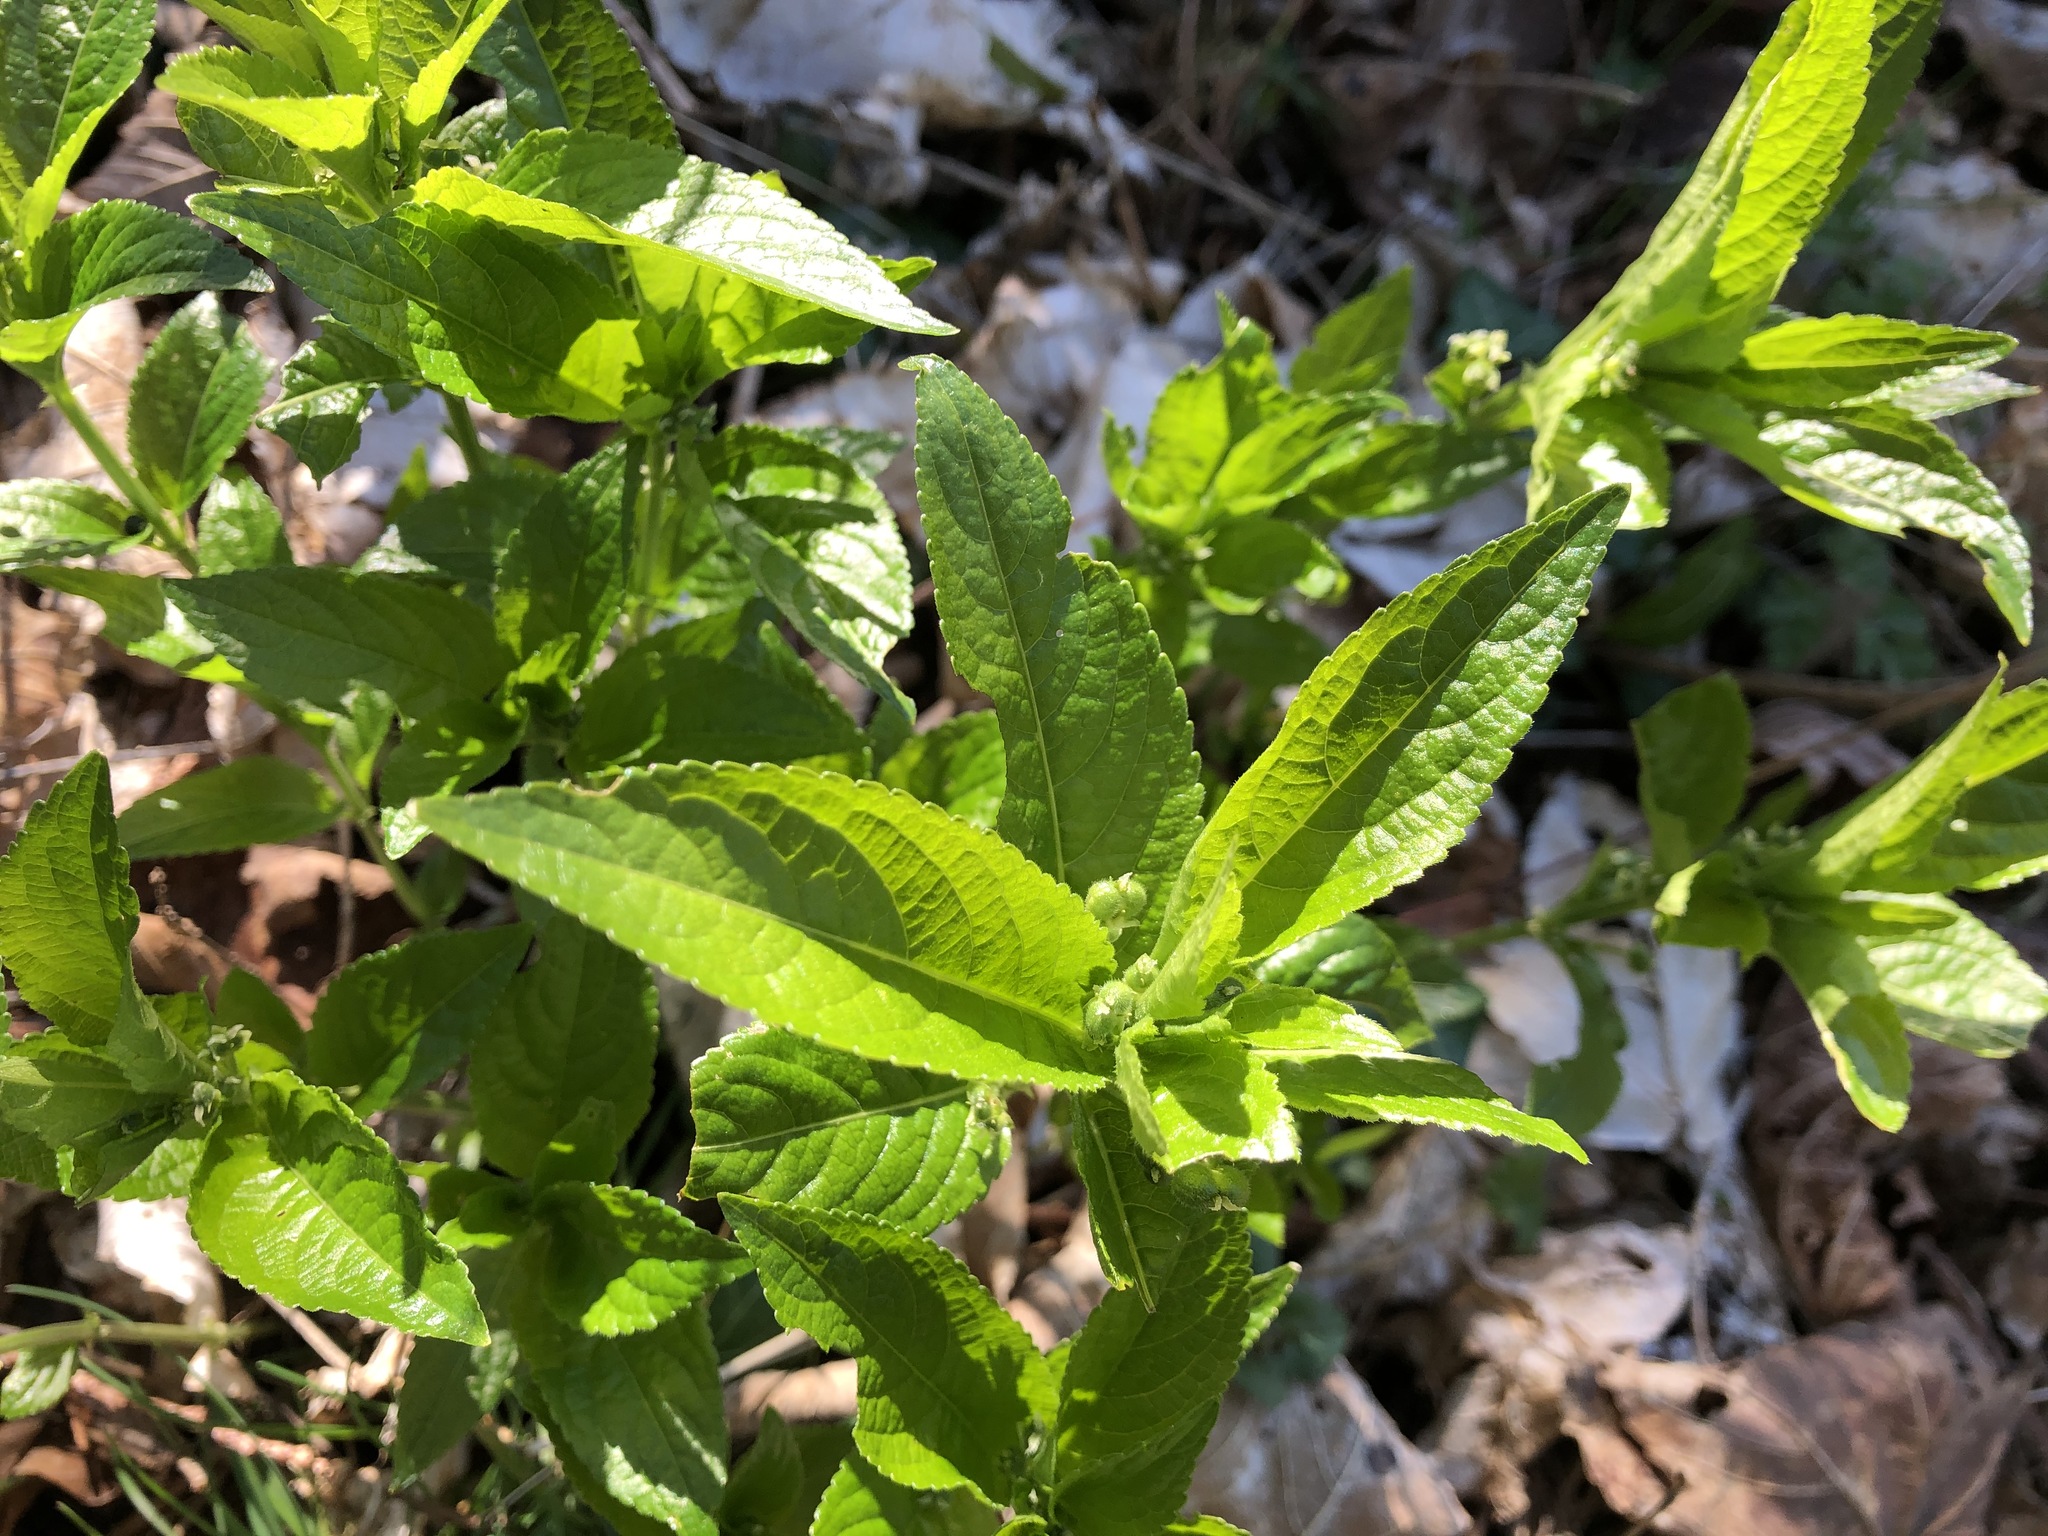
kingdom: Plantae
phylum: Tracheophyta
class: Magnoliopsida
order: Malpighiales
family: Euphorbiaceae
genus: Mercurialis
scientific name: Mercurialis perennis
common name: Dog mercury
